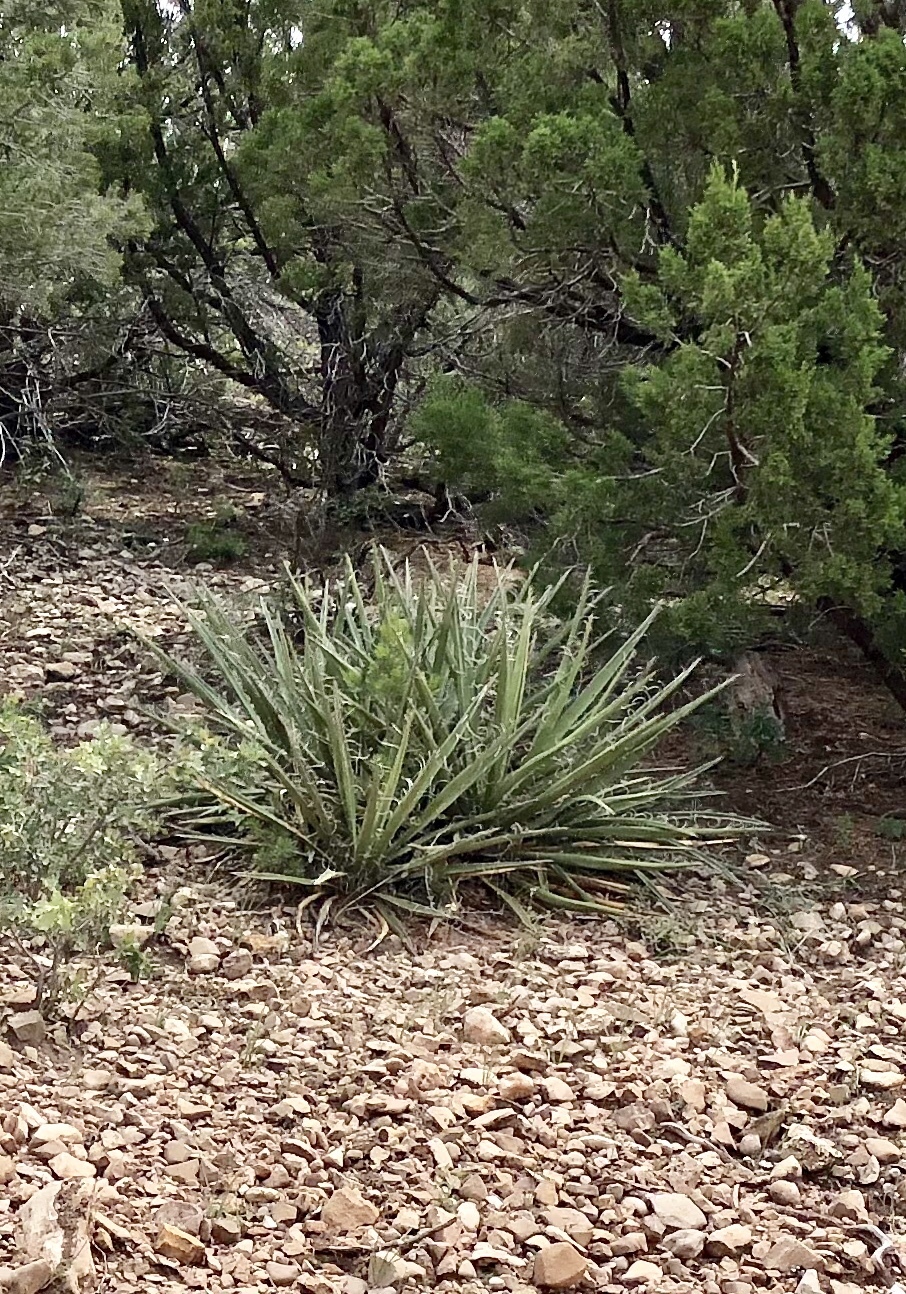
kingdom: Plantae
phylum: Tracheophyta
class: Liliopsida
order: Asparagales
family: Asparagaceae
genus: Yucca
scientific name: Yucca baccata
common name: Banana yucca
